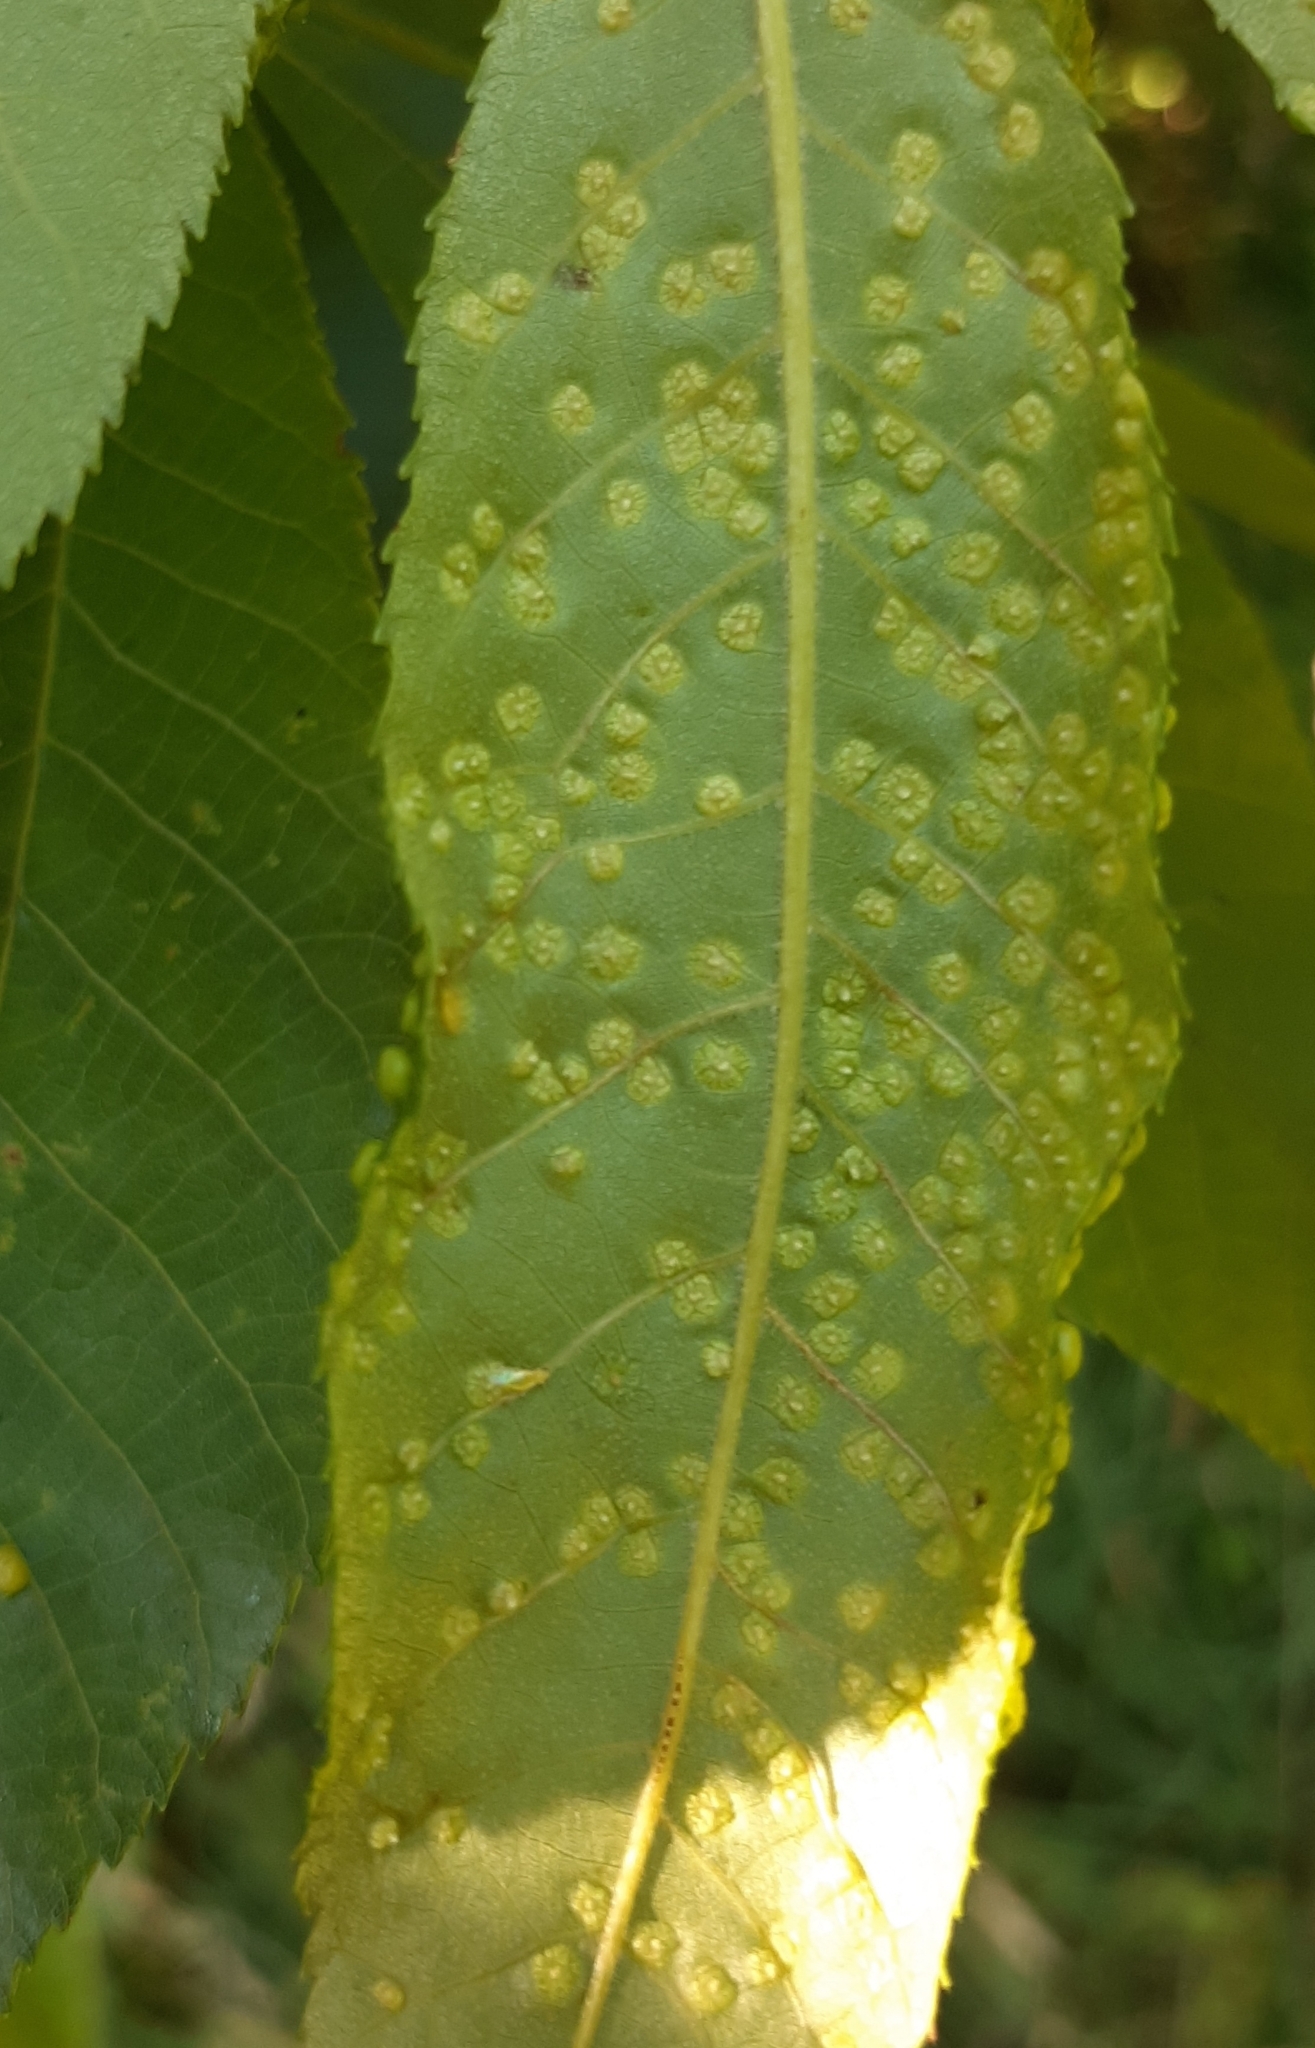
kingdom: Animalia
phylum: Arthropoda
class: Insecta
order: Hemiptera
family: Phylloxeridae
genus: Phylloxera
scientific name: Phylloxera caryae-semen
